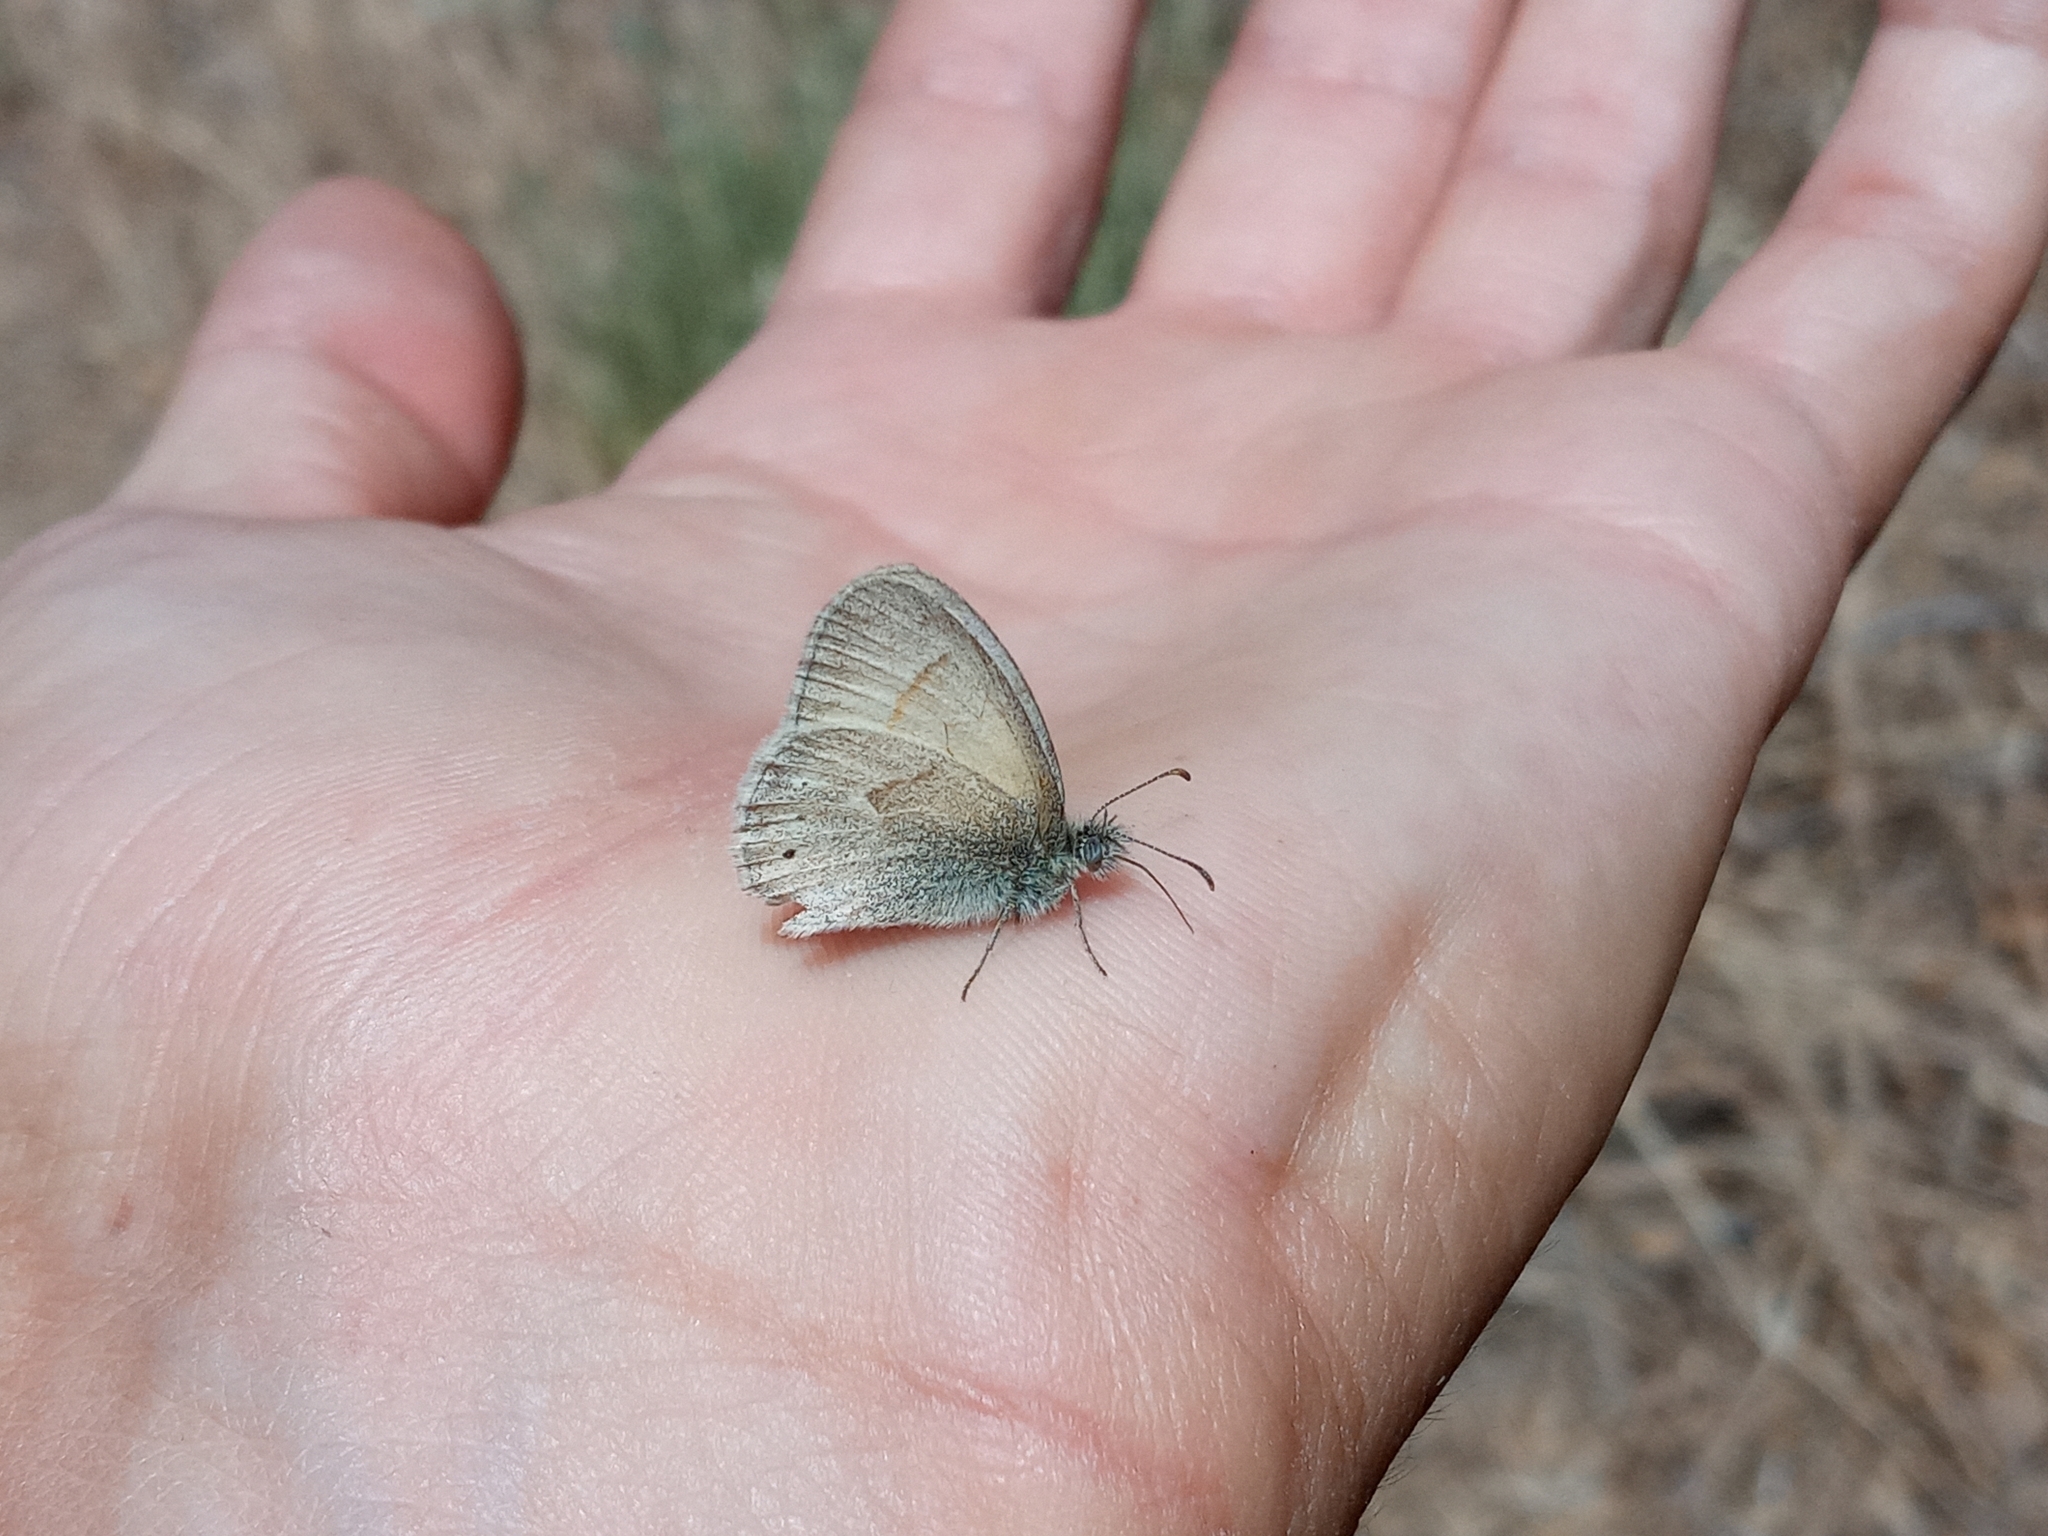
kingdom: Animalia
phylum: Arthropoda
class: Insecta
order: Lepidoptera
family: Nymphalidae
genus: Coenonympha
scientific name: Coenonympha california
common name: Common ringlet
